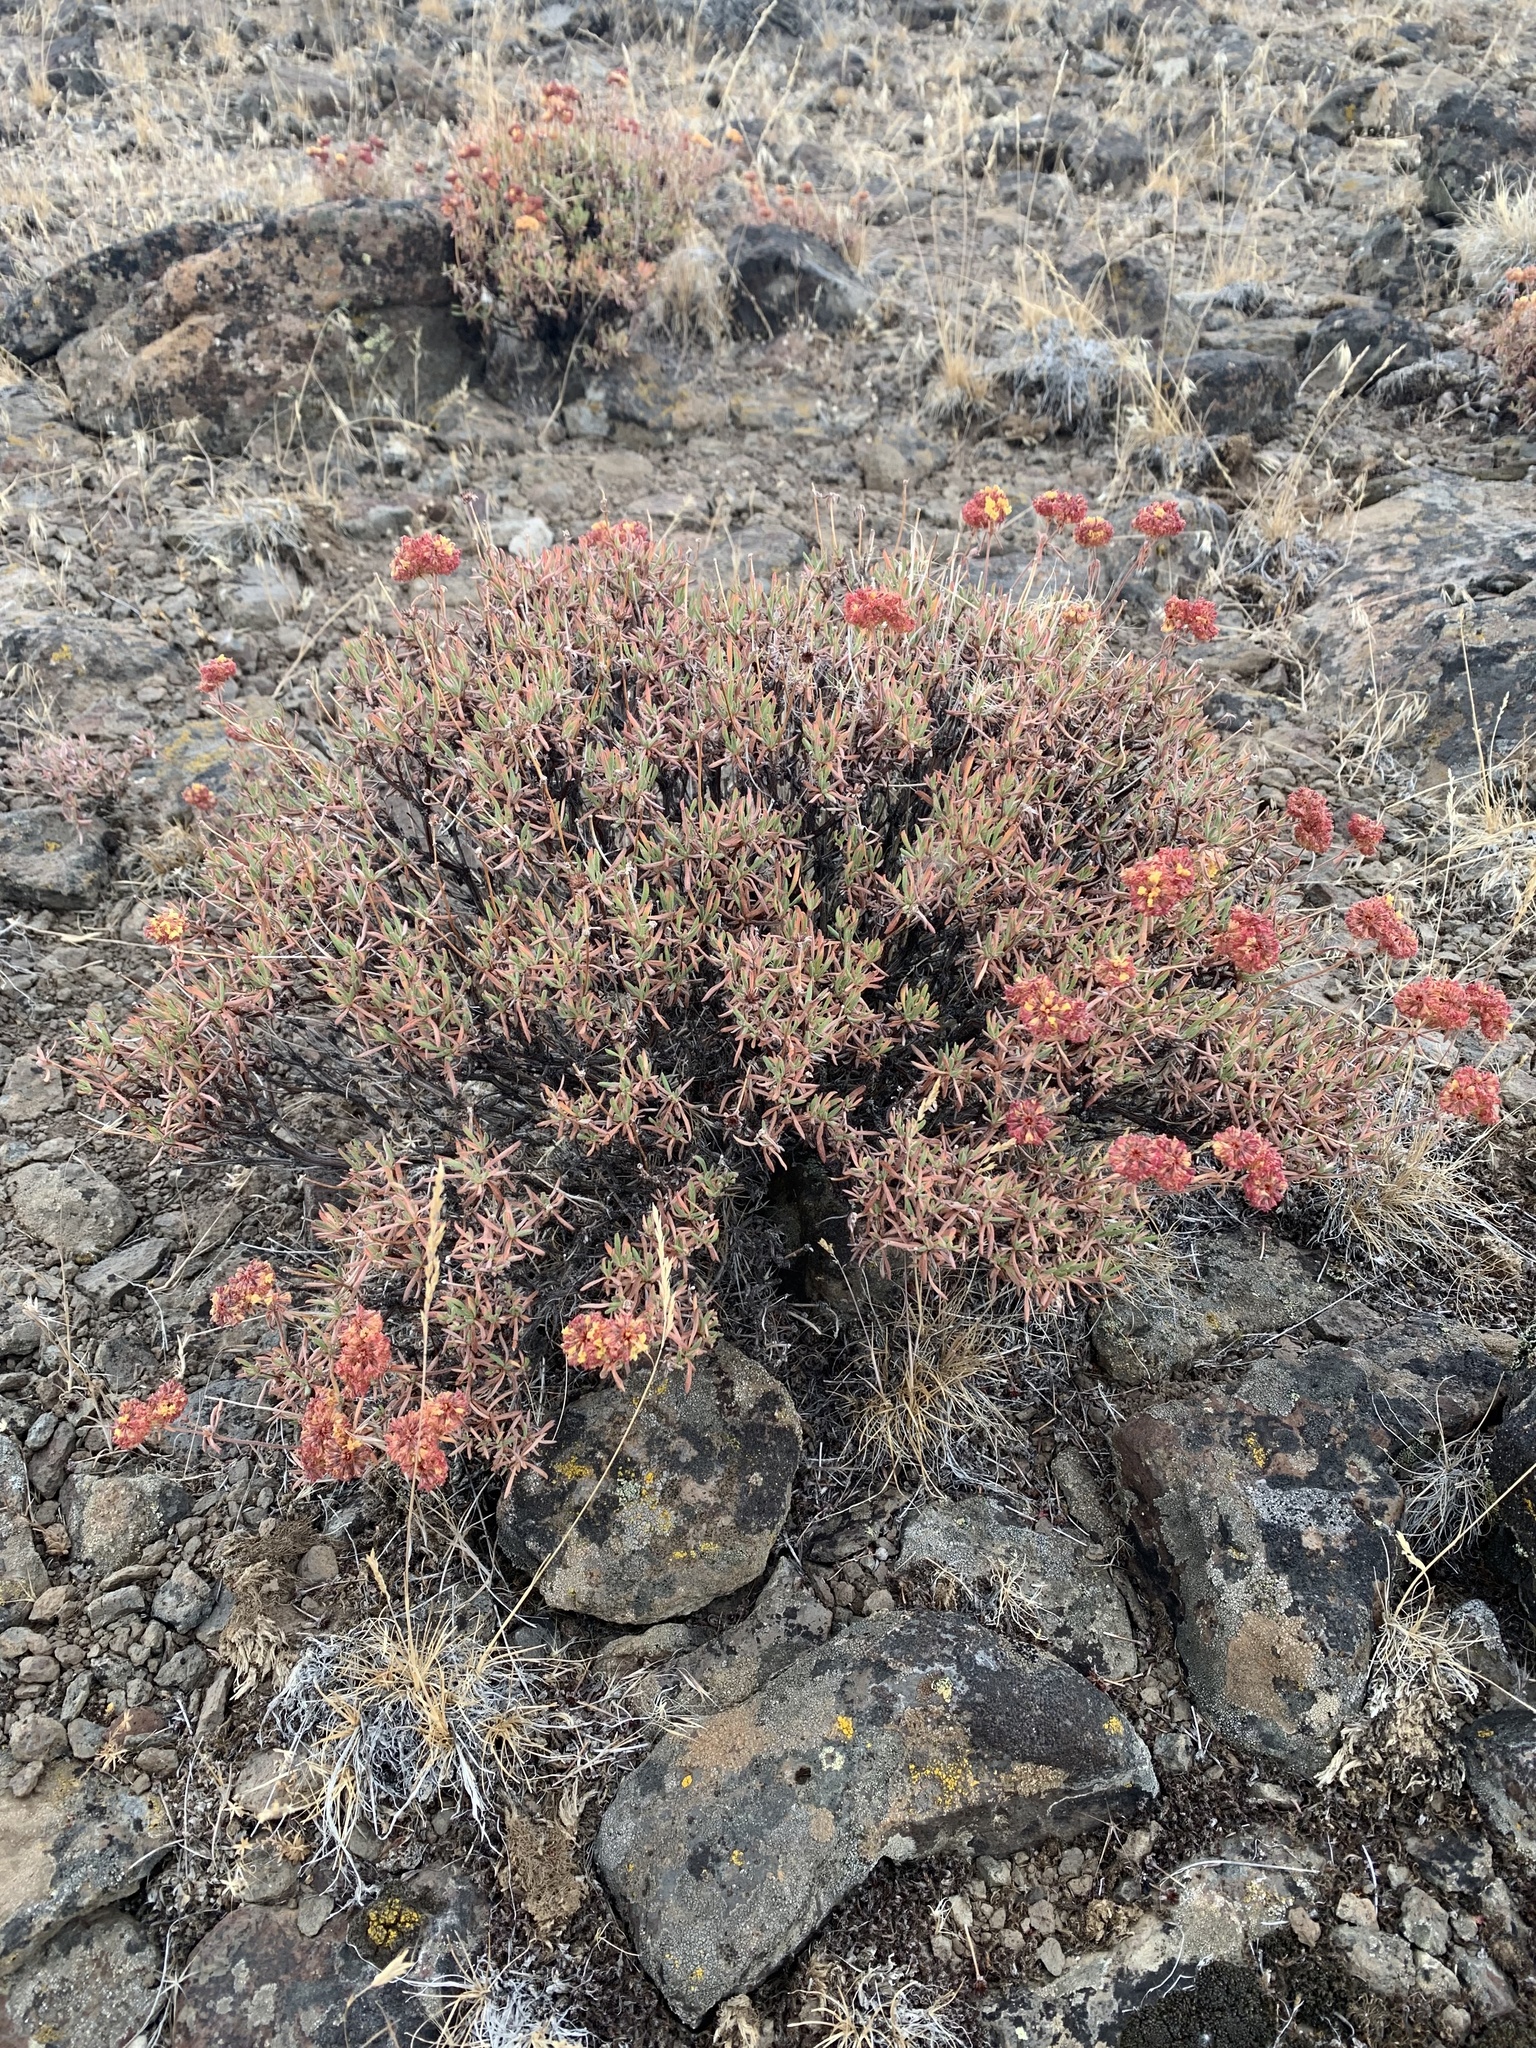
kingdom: Plantae
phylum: Tracheophyta
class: Magnoliopsida
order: Caryophyllales
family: Polygonaceae
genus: Eriogonum
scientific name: Eriogonum sphaerocephalum
